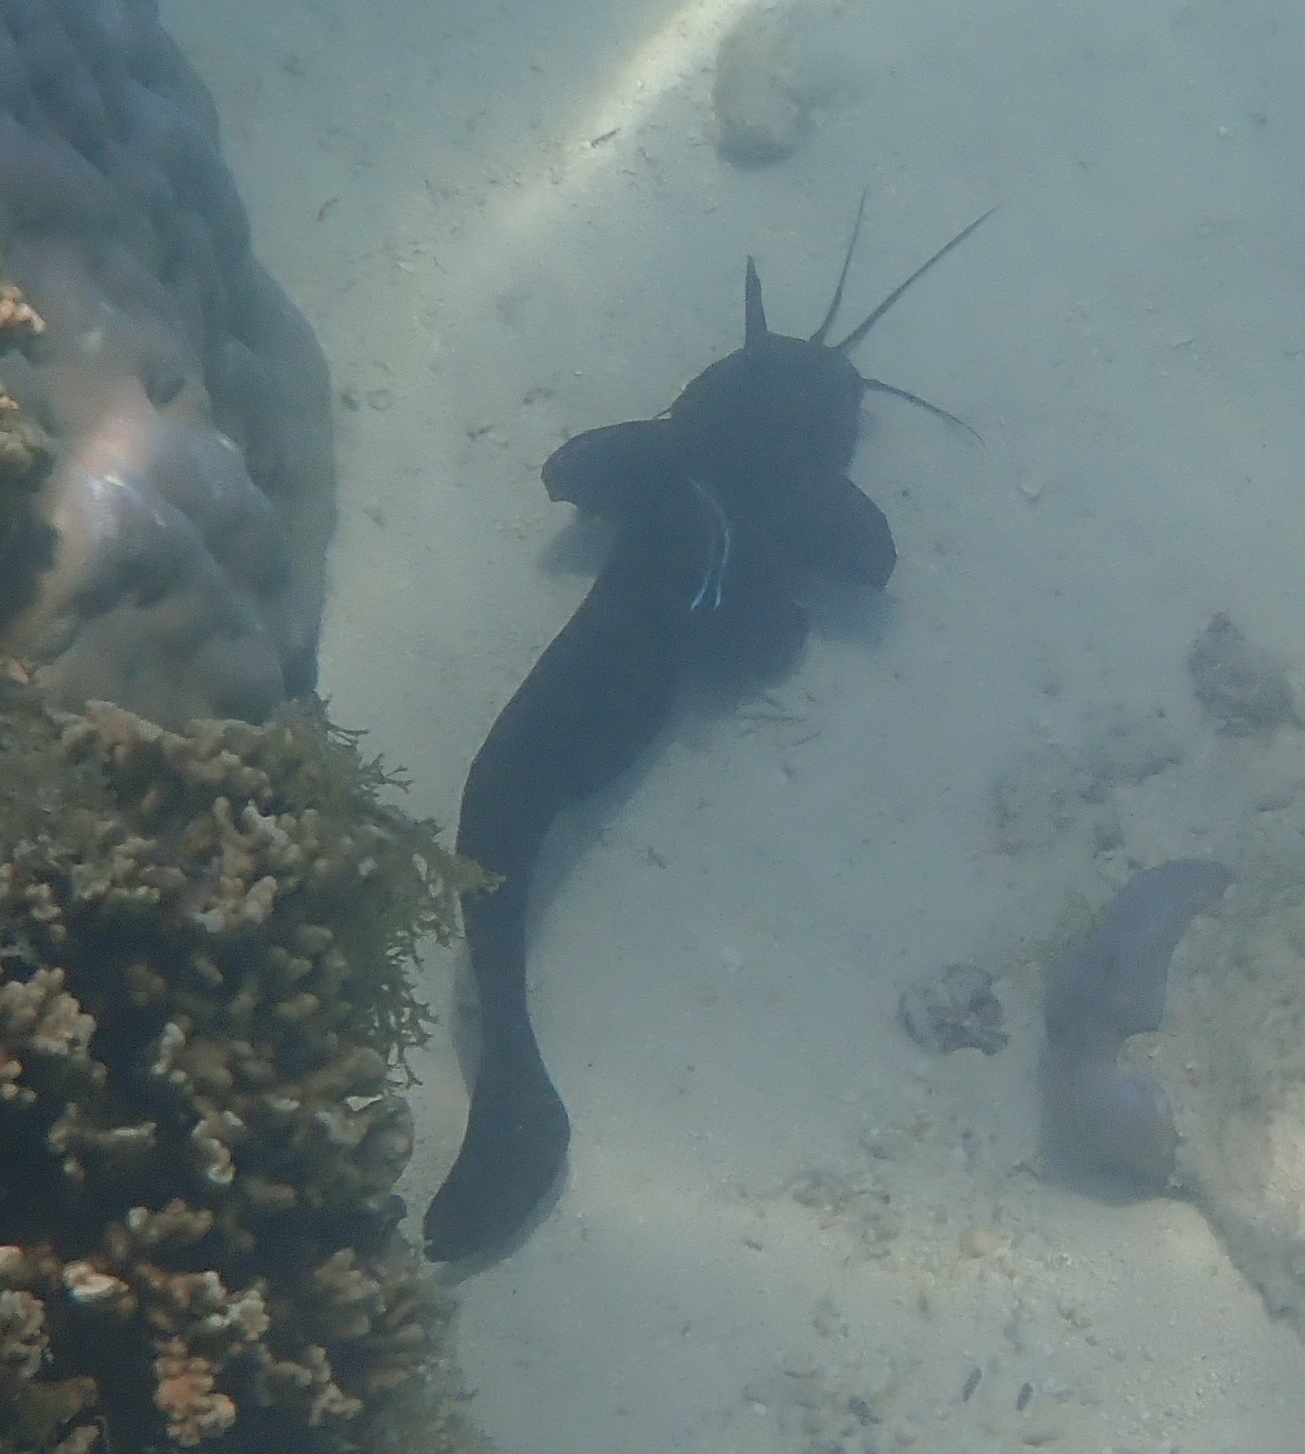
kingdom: Animalia
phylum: Chordata
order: Siluriformes
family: Plotosidae
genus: Paraplotosus
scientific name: Paraplotosus butleri
